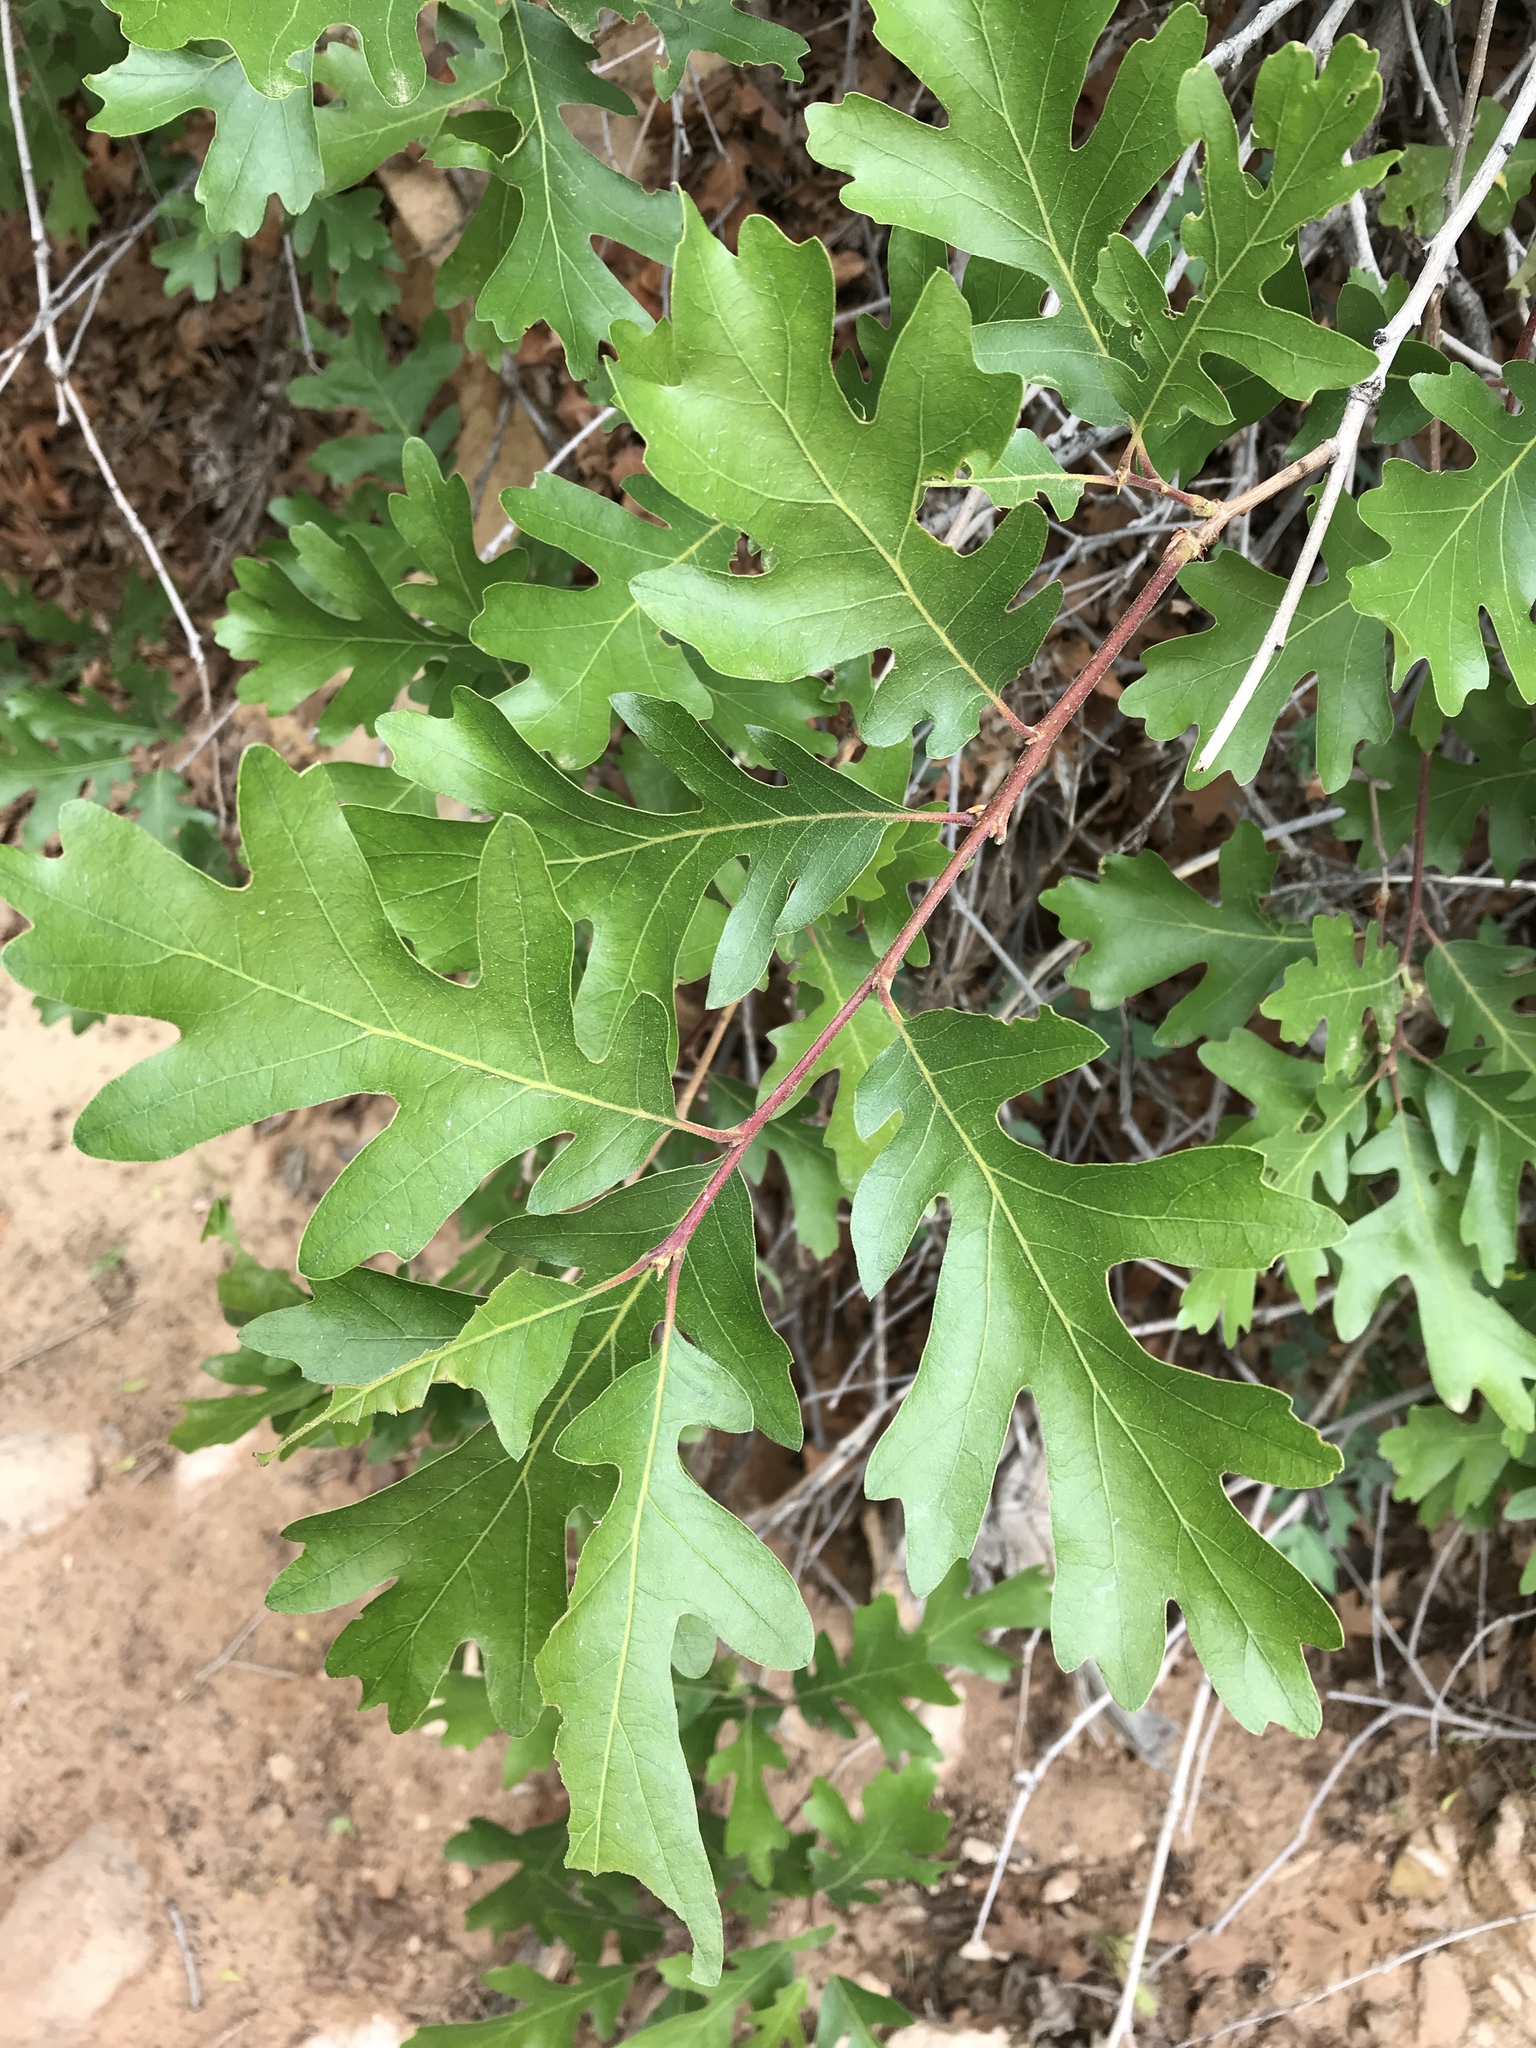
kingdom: Plantae
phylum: Tracheophyta
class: Magnoliopsida
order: Fagales
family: Fagaceae
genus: Quercus
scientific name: Quercus gambelii
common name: Gambel oak
